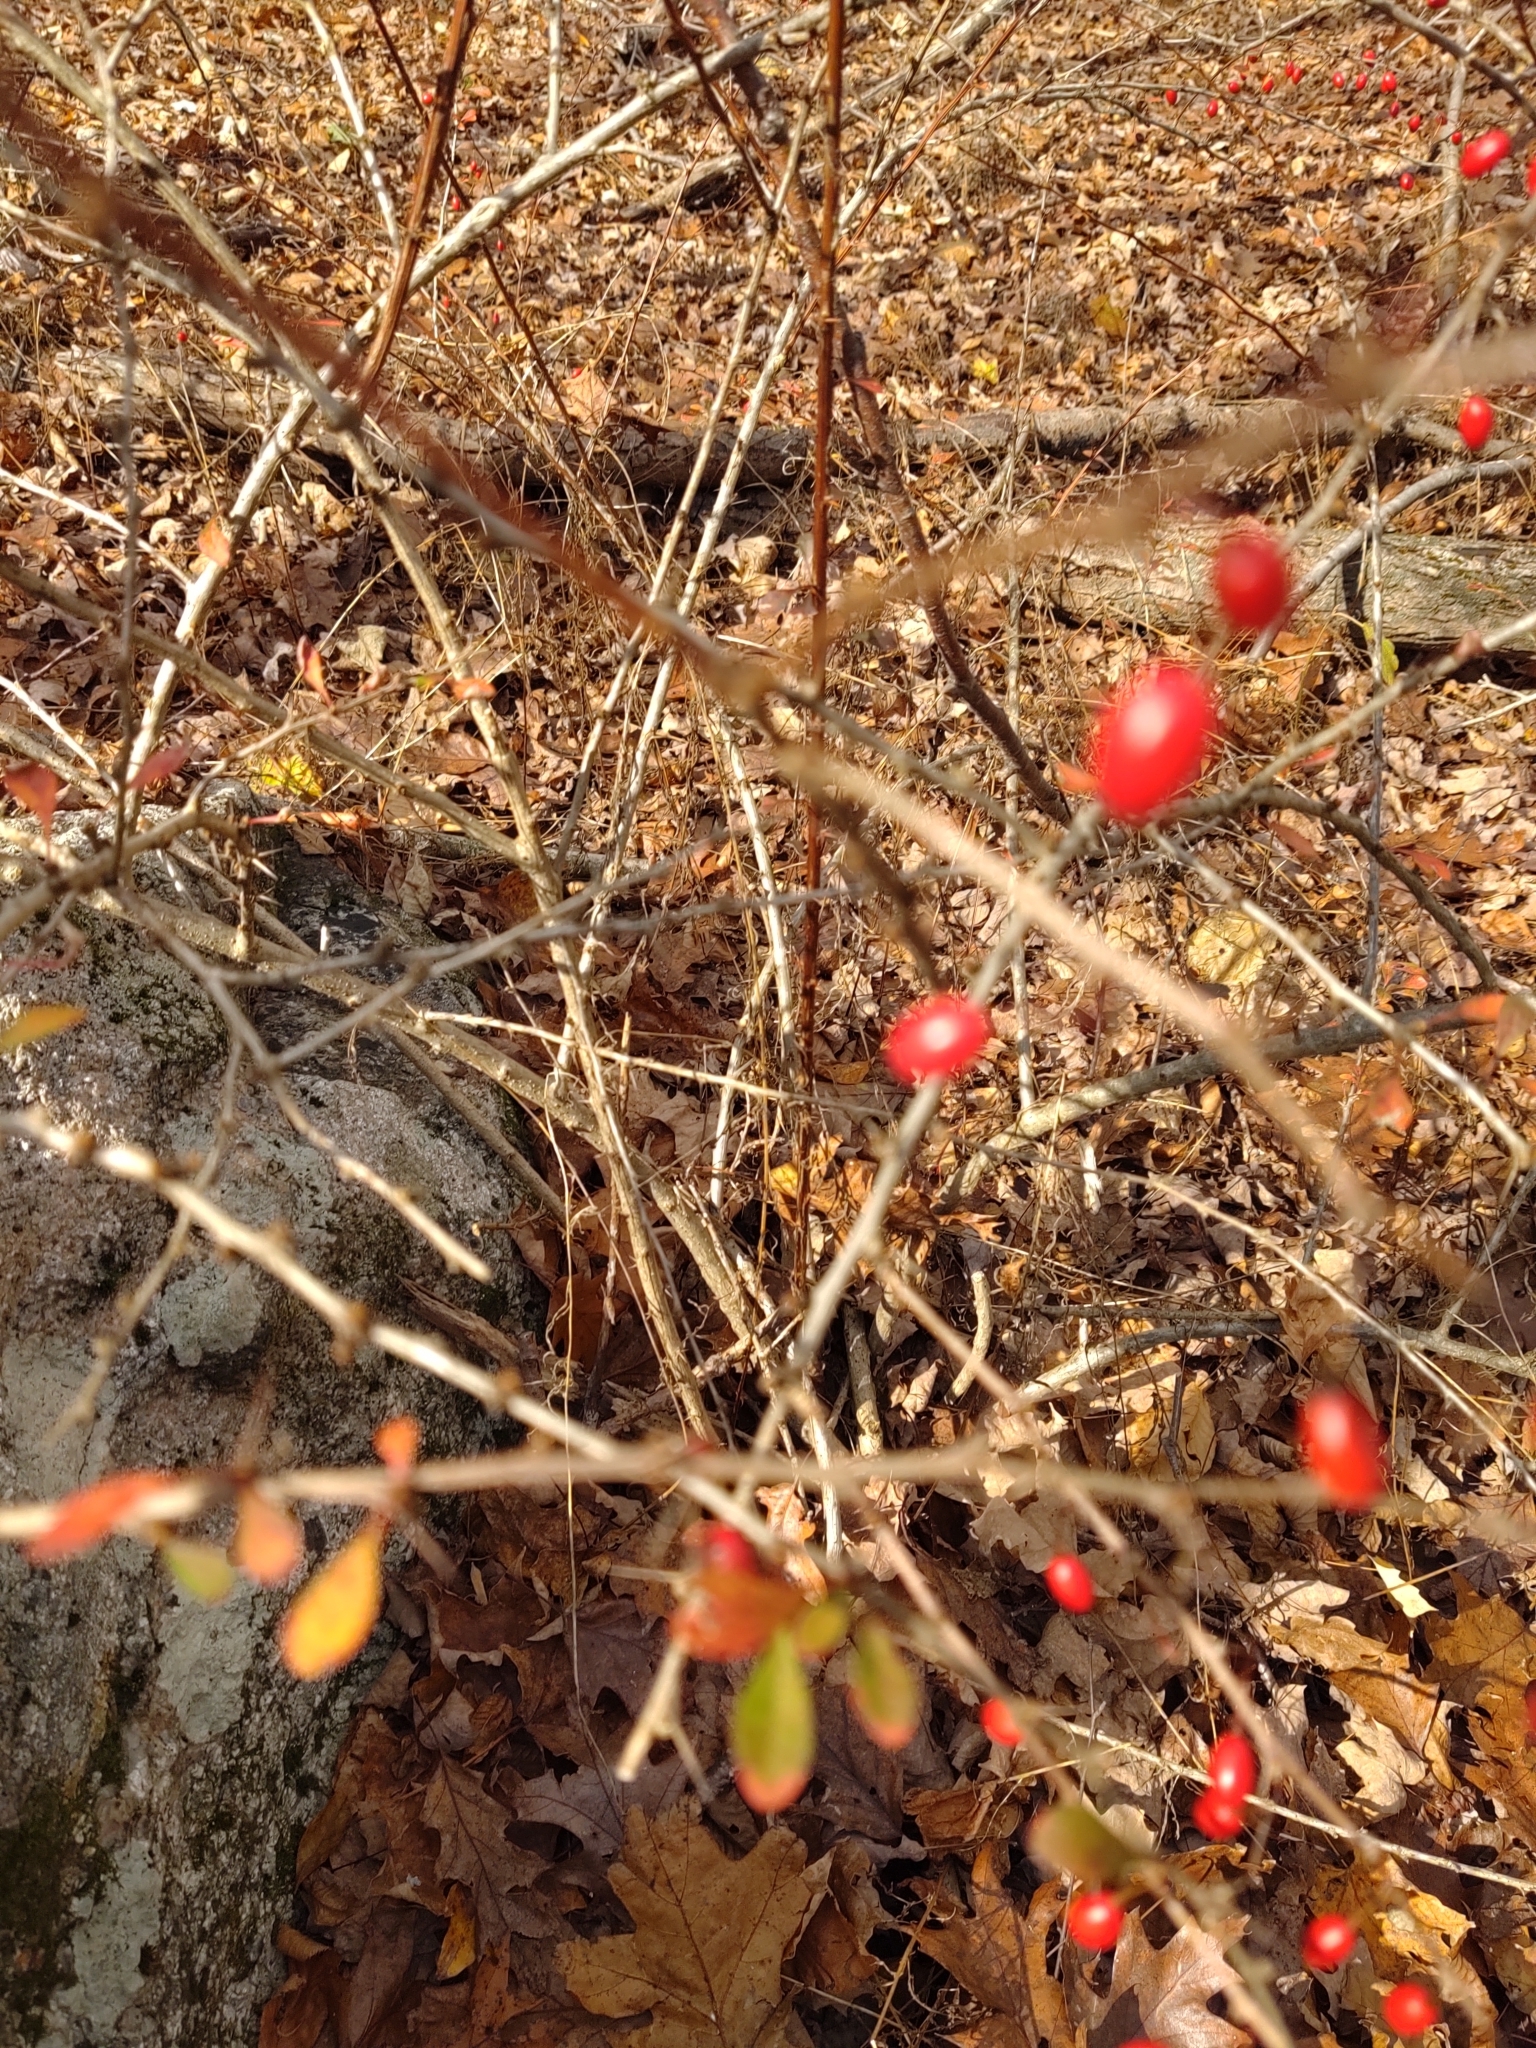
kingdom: Plantae
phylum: Tracheophyta
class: Magnoliopsida
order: Ranunculales
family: Berberidaceae
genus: Berberis
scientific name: Berberis thunbergii
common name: Japanese barberry
